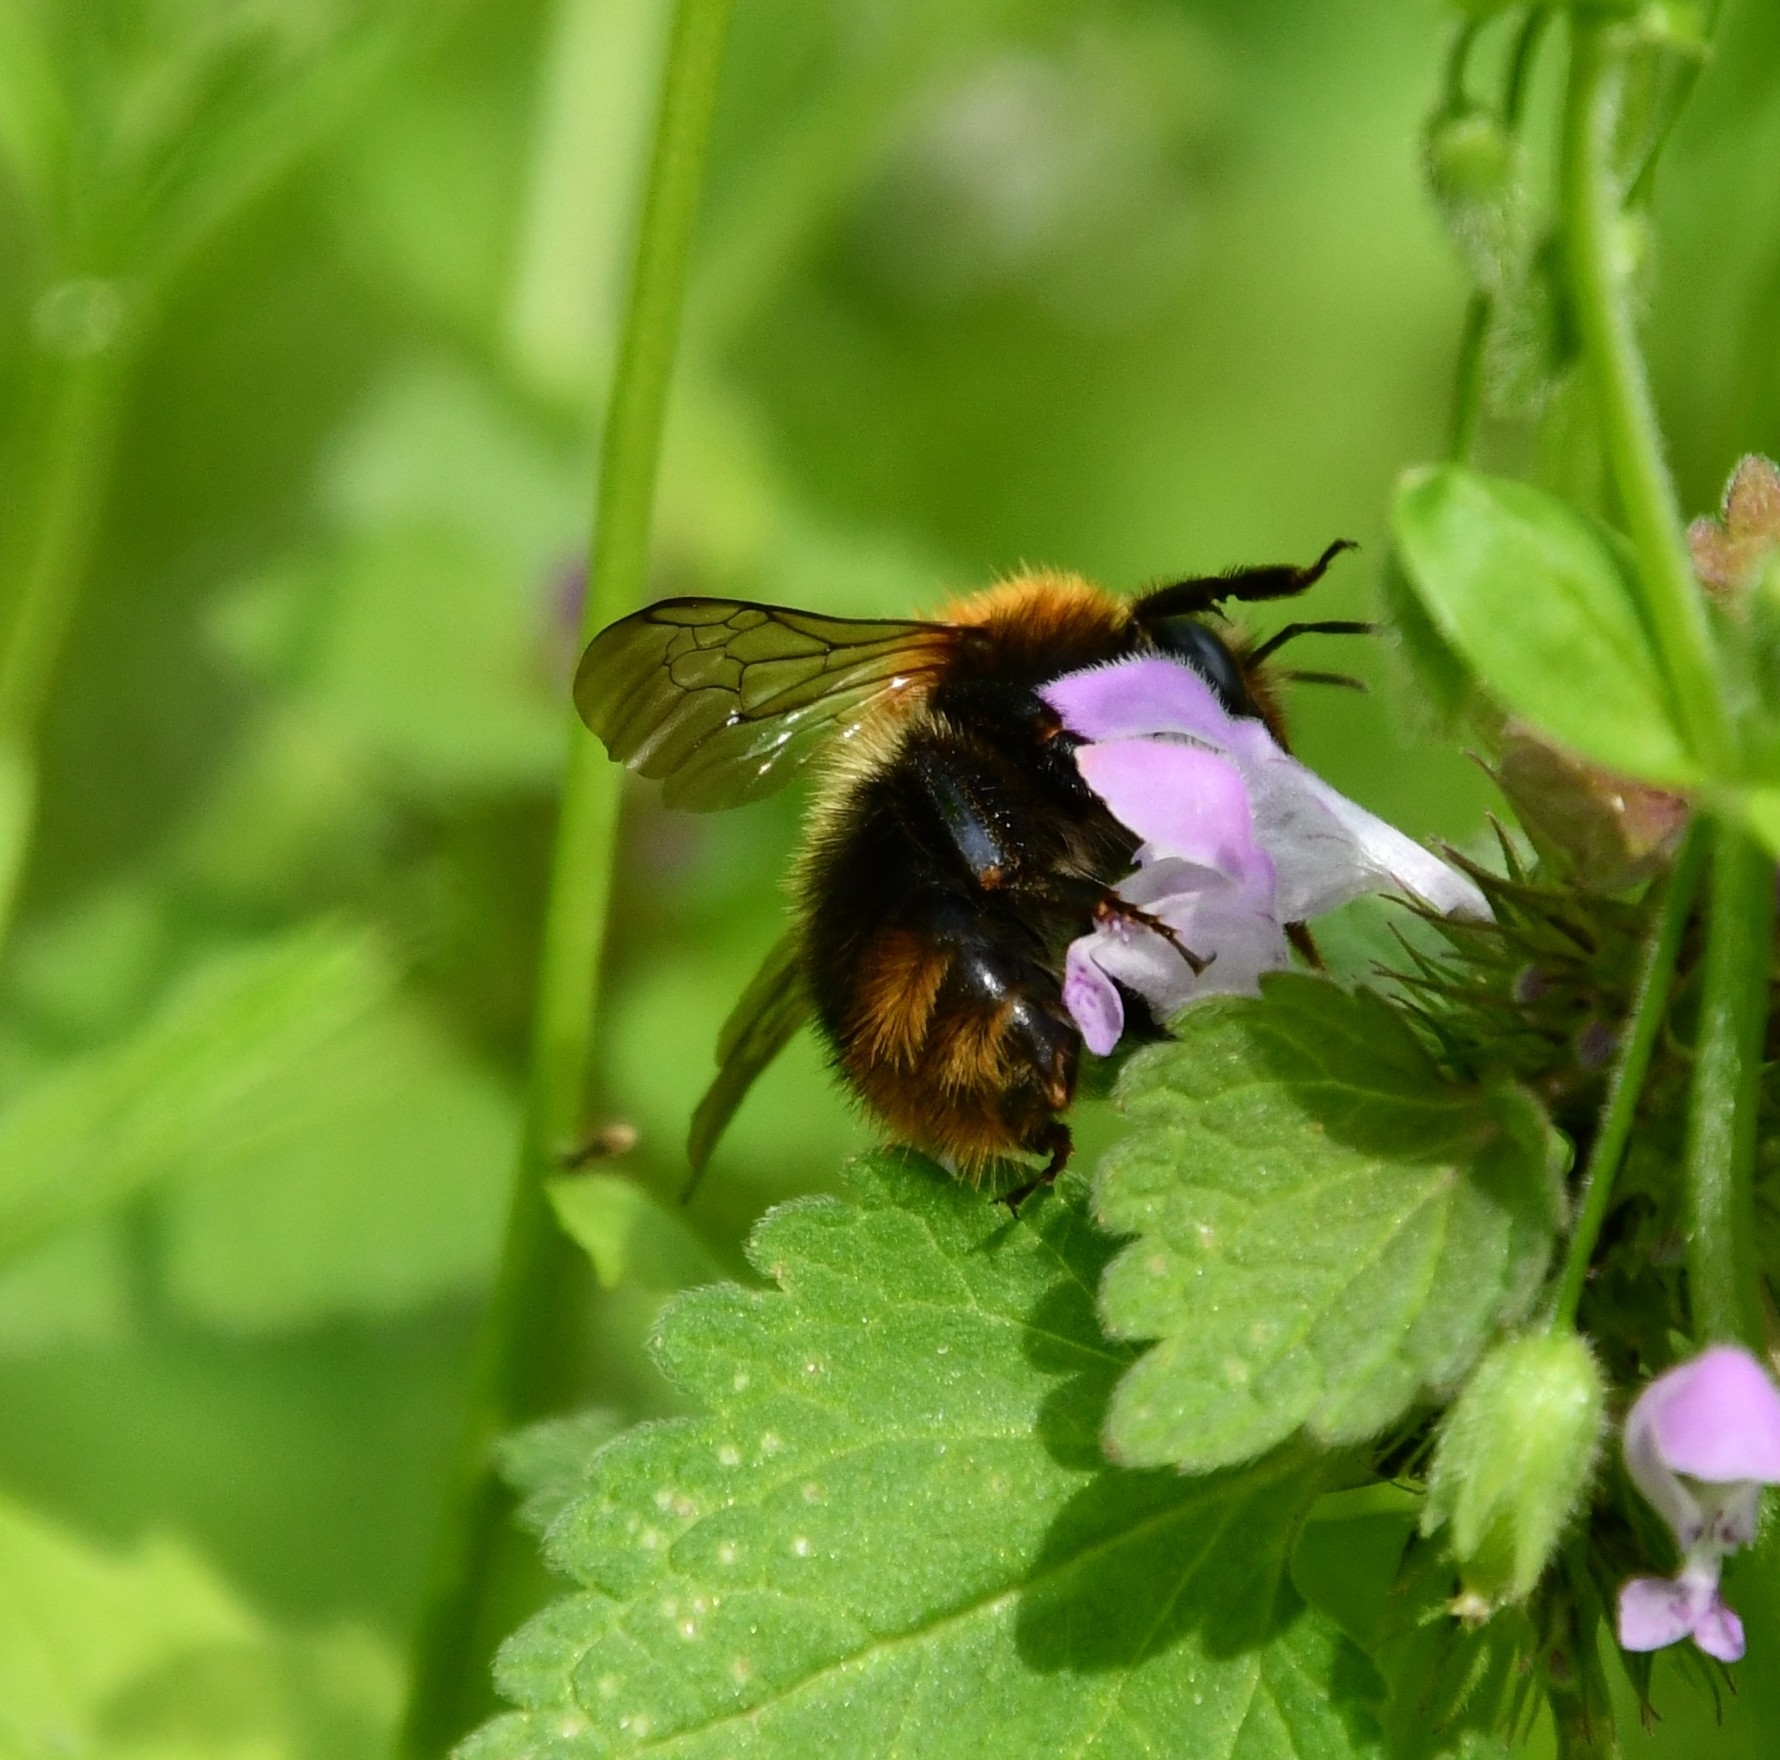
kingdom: Animalia
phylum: Arthropoda
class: Insecta
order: Hymenoptera
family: Apidae
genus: Bombus
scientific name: Bombus pascuorum
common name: Common carder bee
